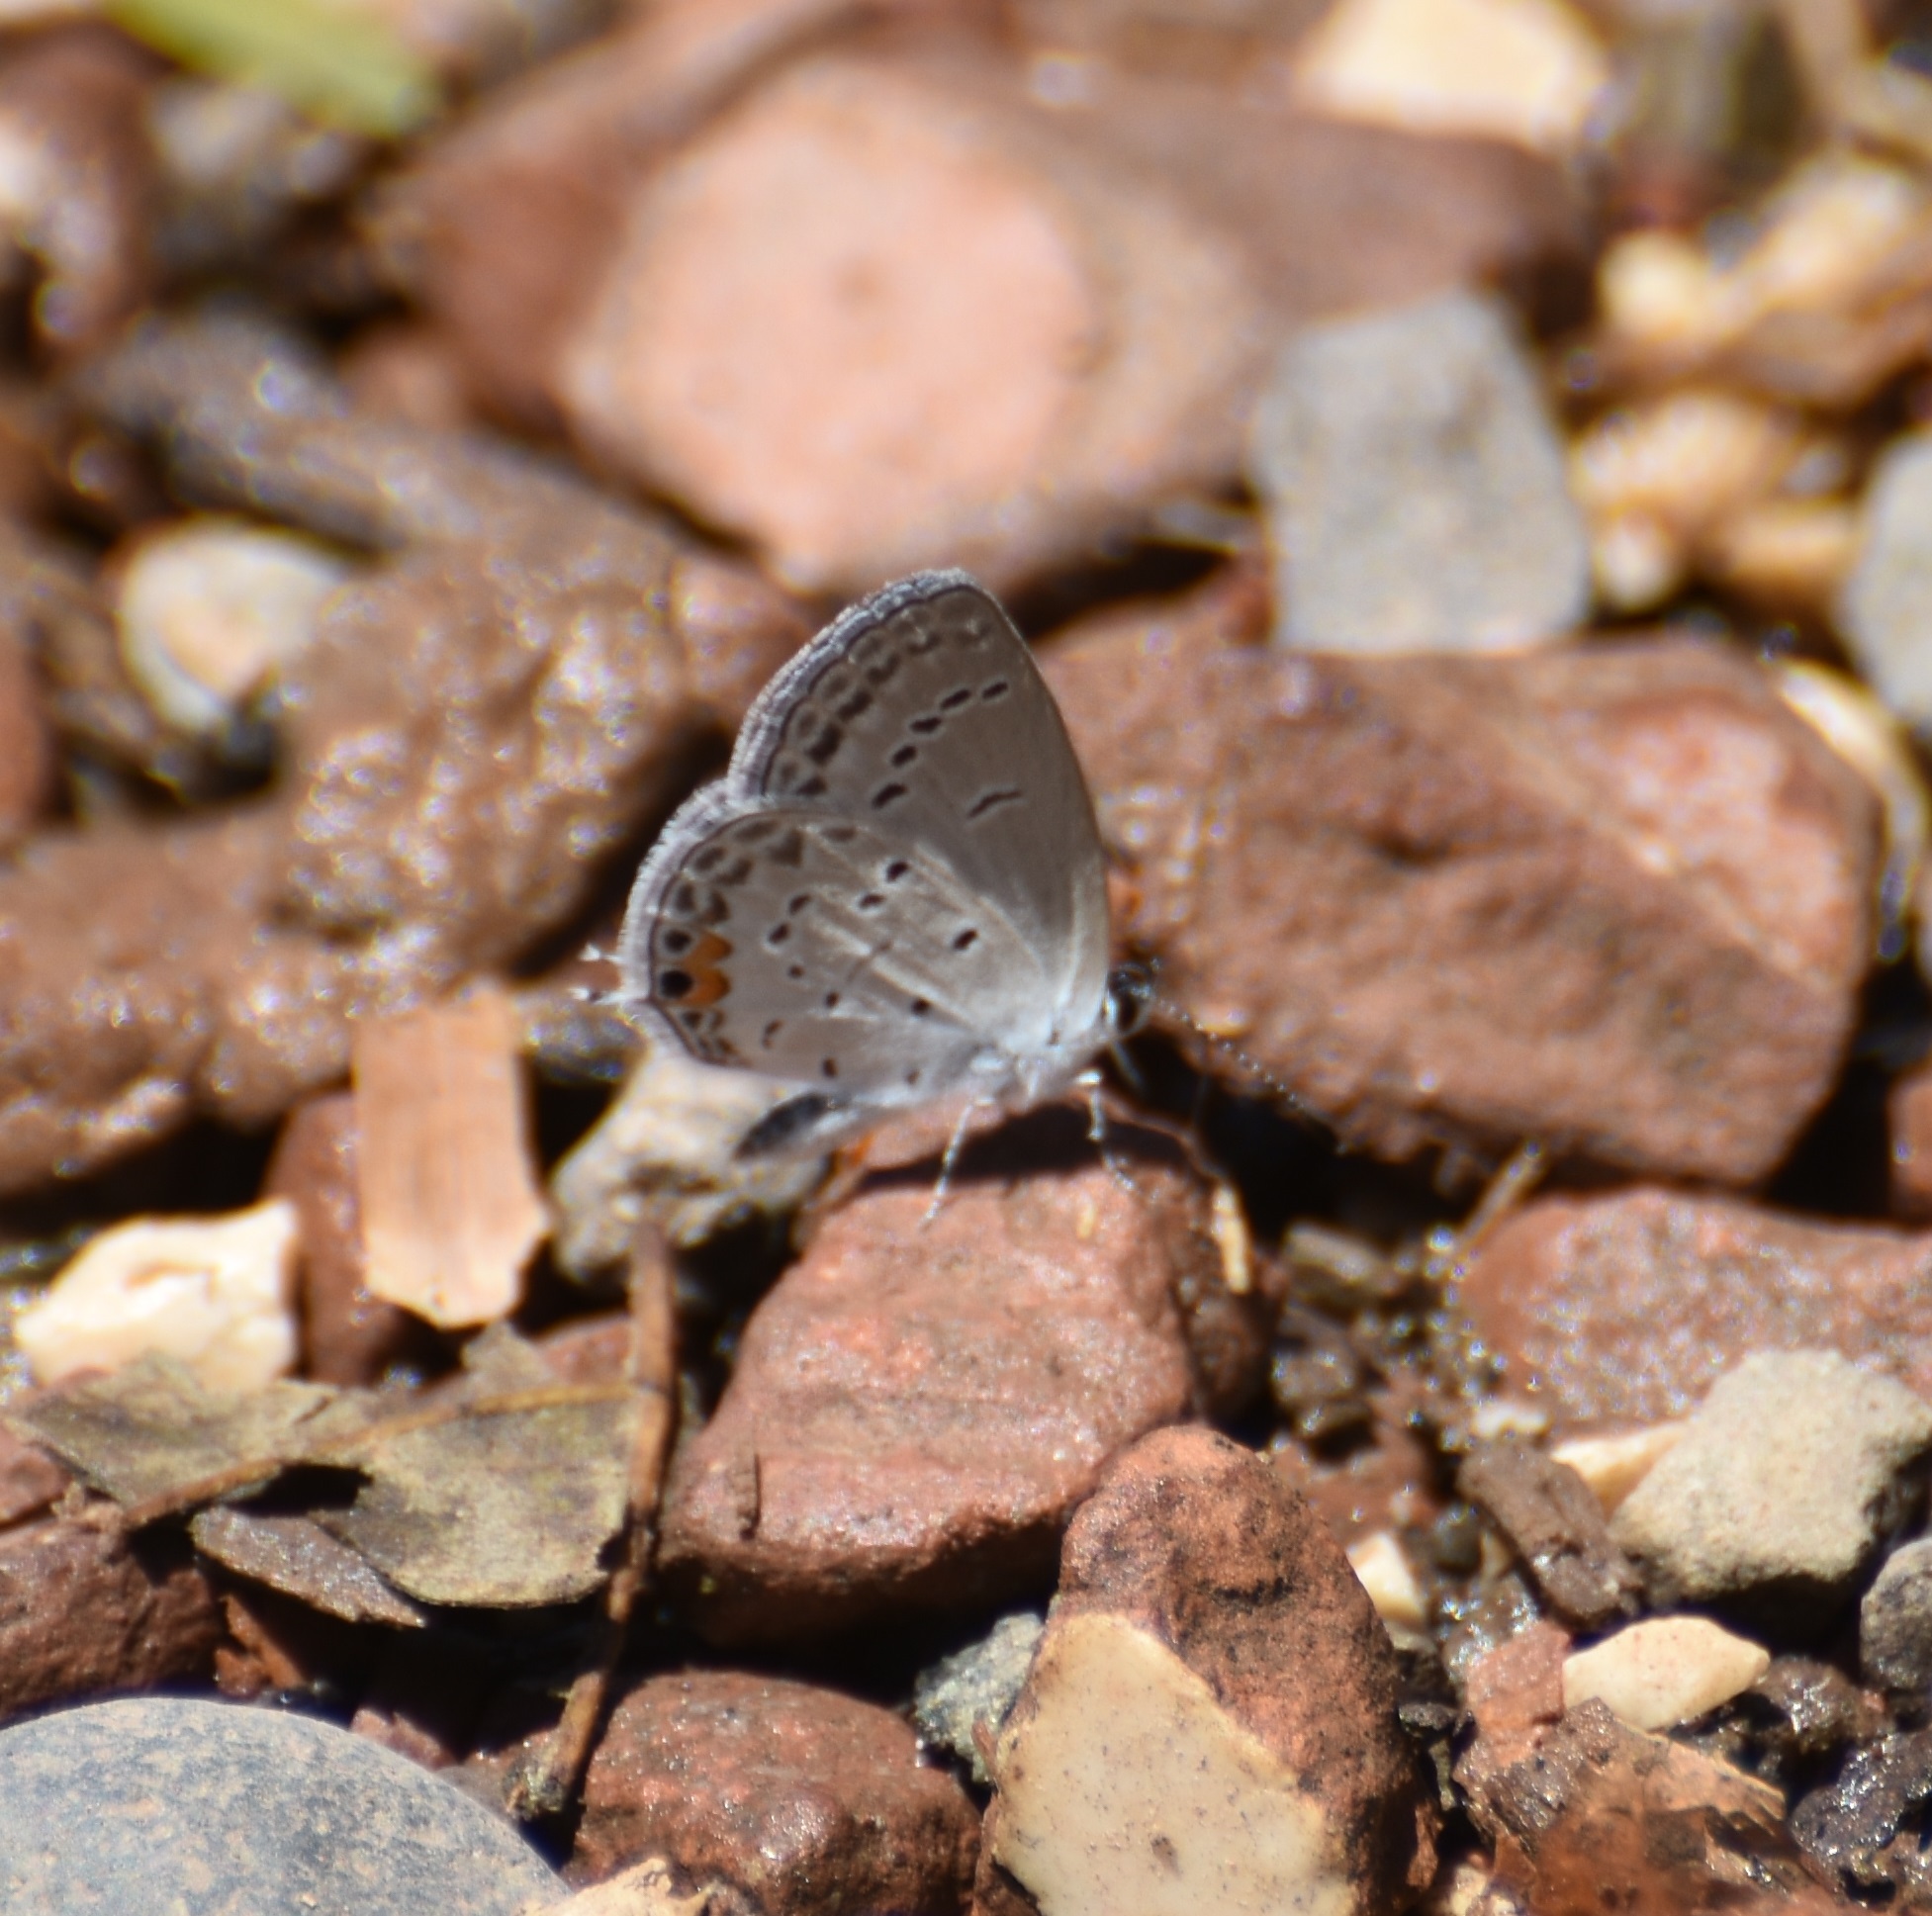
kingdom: Animalia
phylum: Arthropoda
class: Insecta
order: Lepidoptera
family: Lycaenidae
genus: Elkalyce
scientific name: Elkalyce texana
